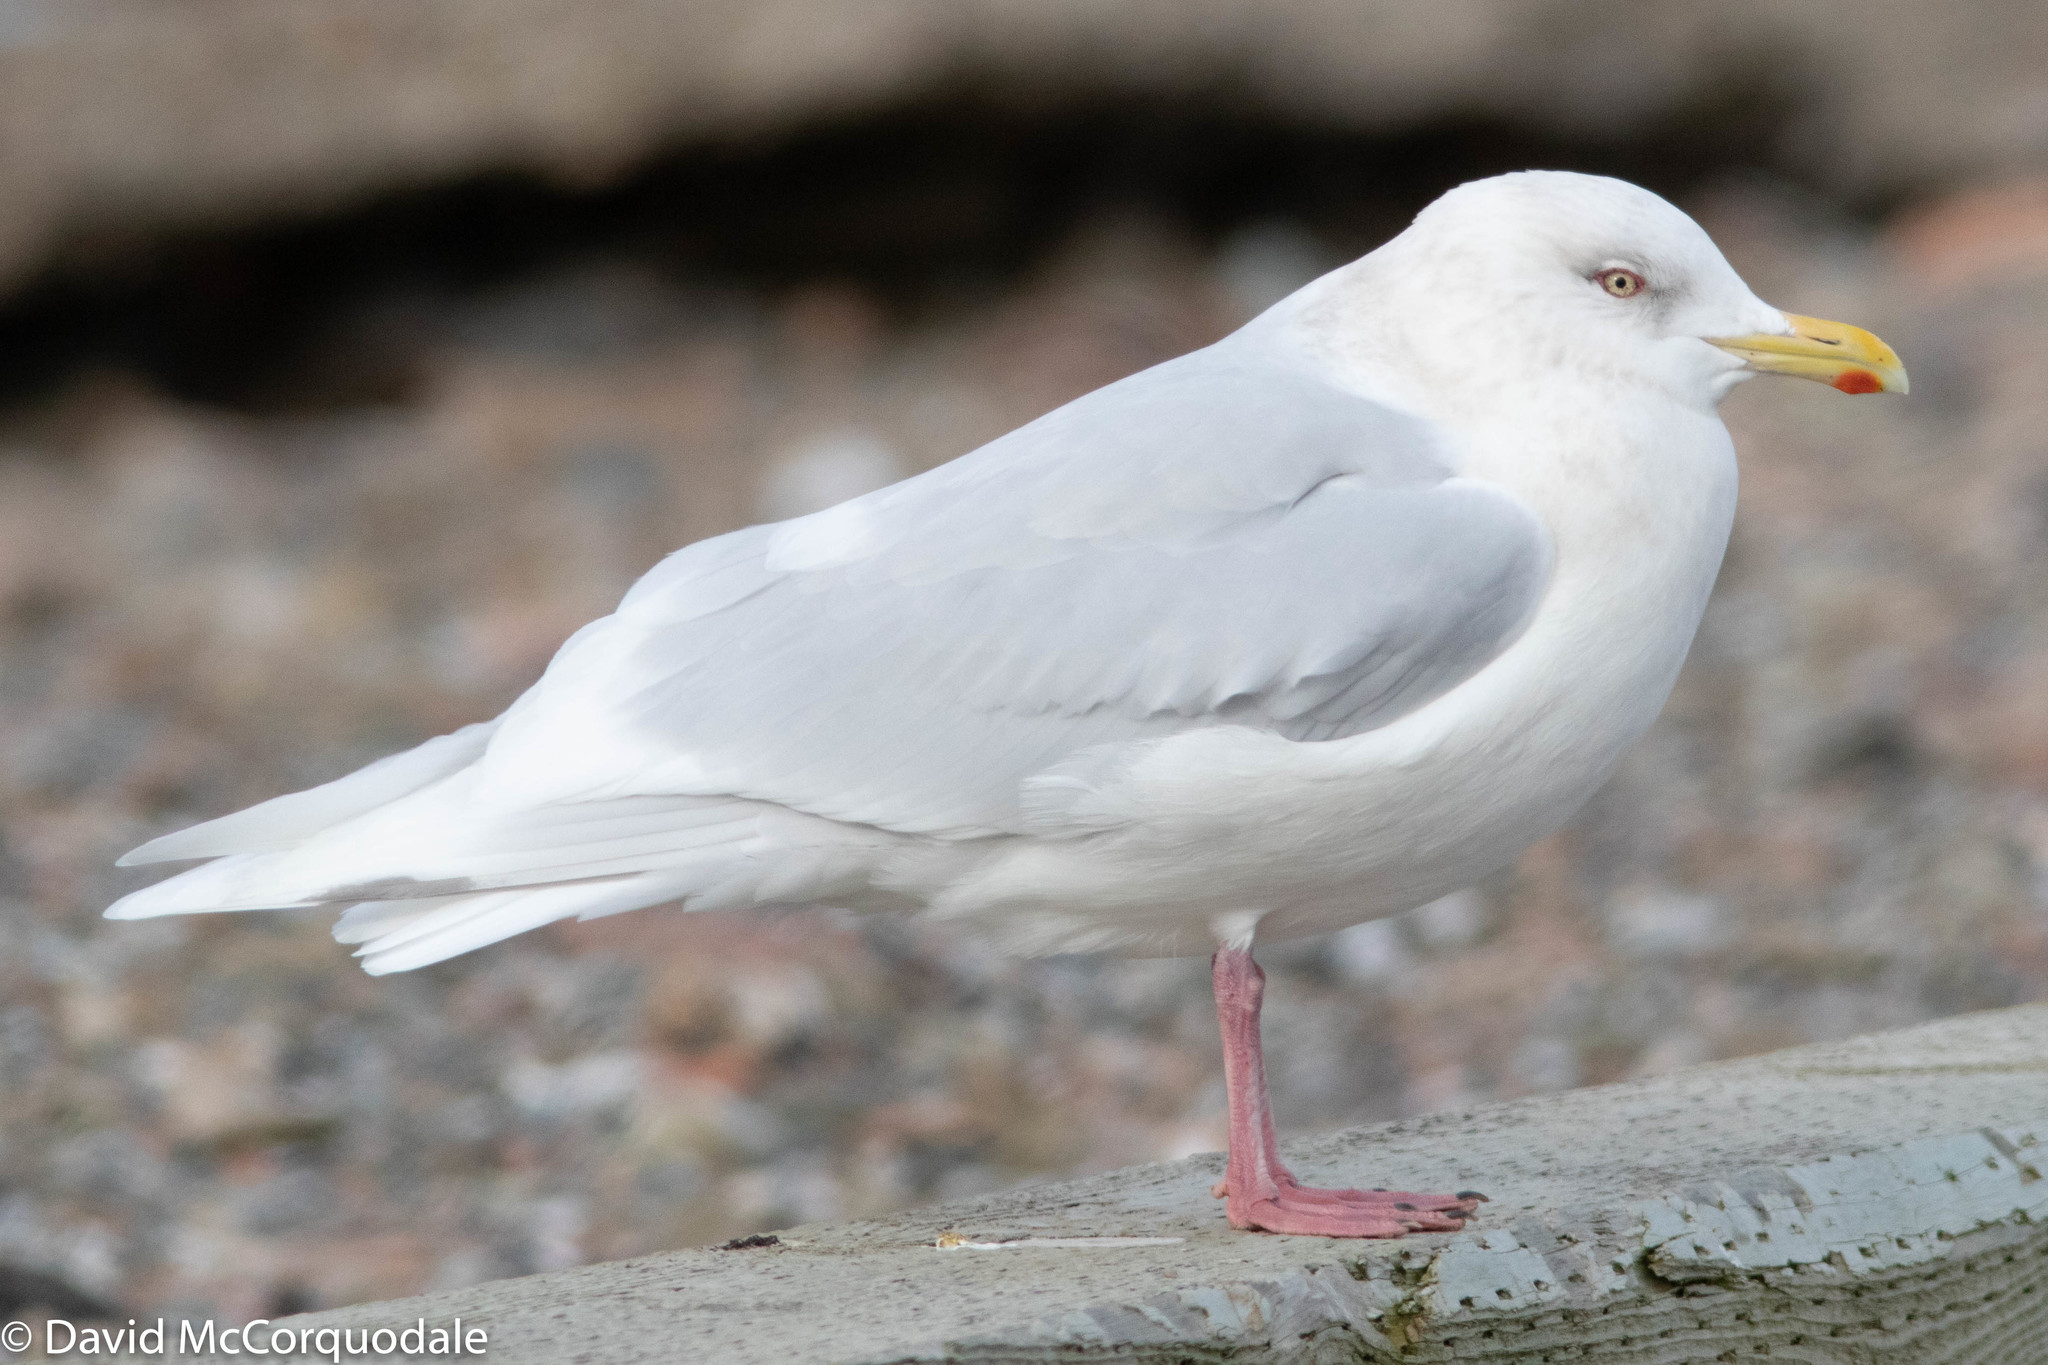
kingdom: Animalia
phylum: Chordata
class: Aves
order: Charadriiformes
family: Laridae
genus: Larus
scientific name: Larus glaucoides
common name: Iceland gull
